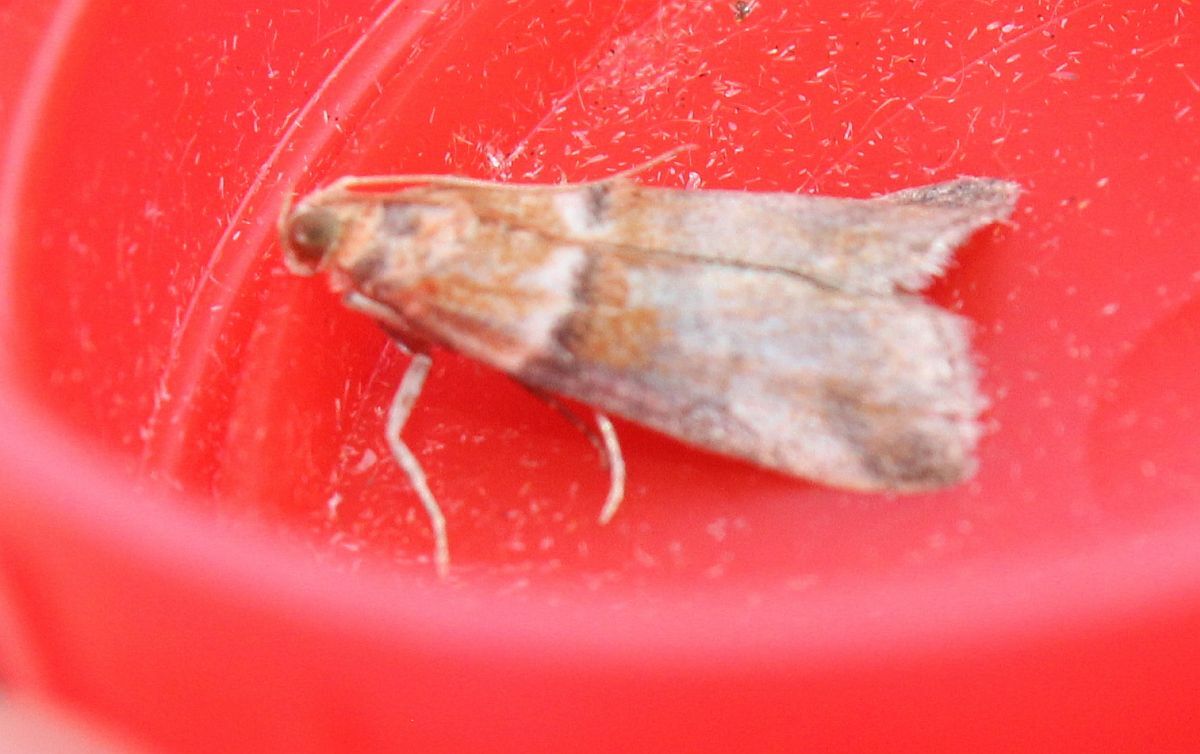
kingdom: Animalia
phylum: Arthropoda
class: Insecta
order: Lepidoptera
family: Pyralidae
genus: Acrobasis
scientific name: Acrobasis repandana
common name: Warted knot-horn
